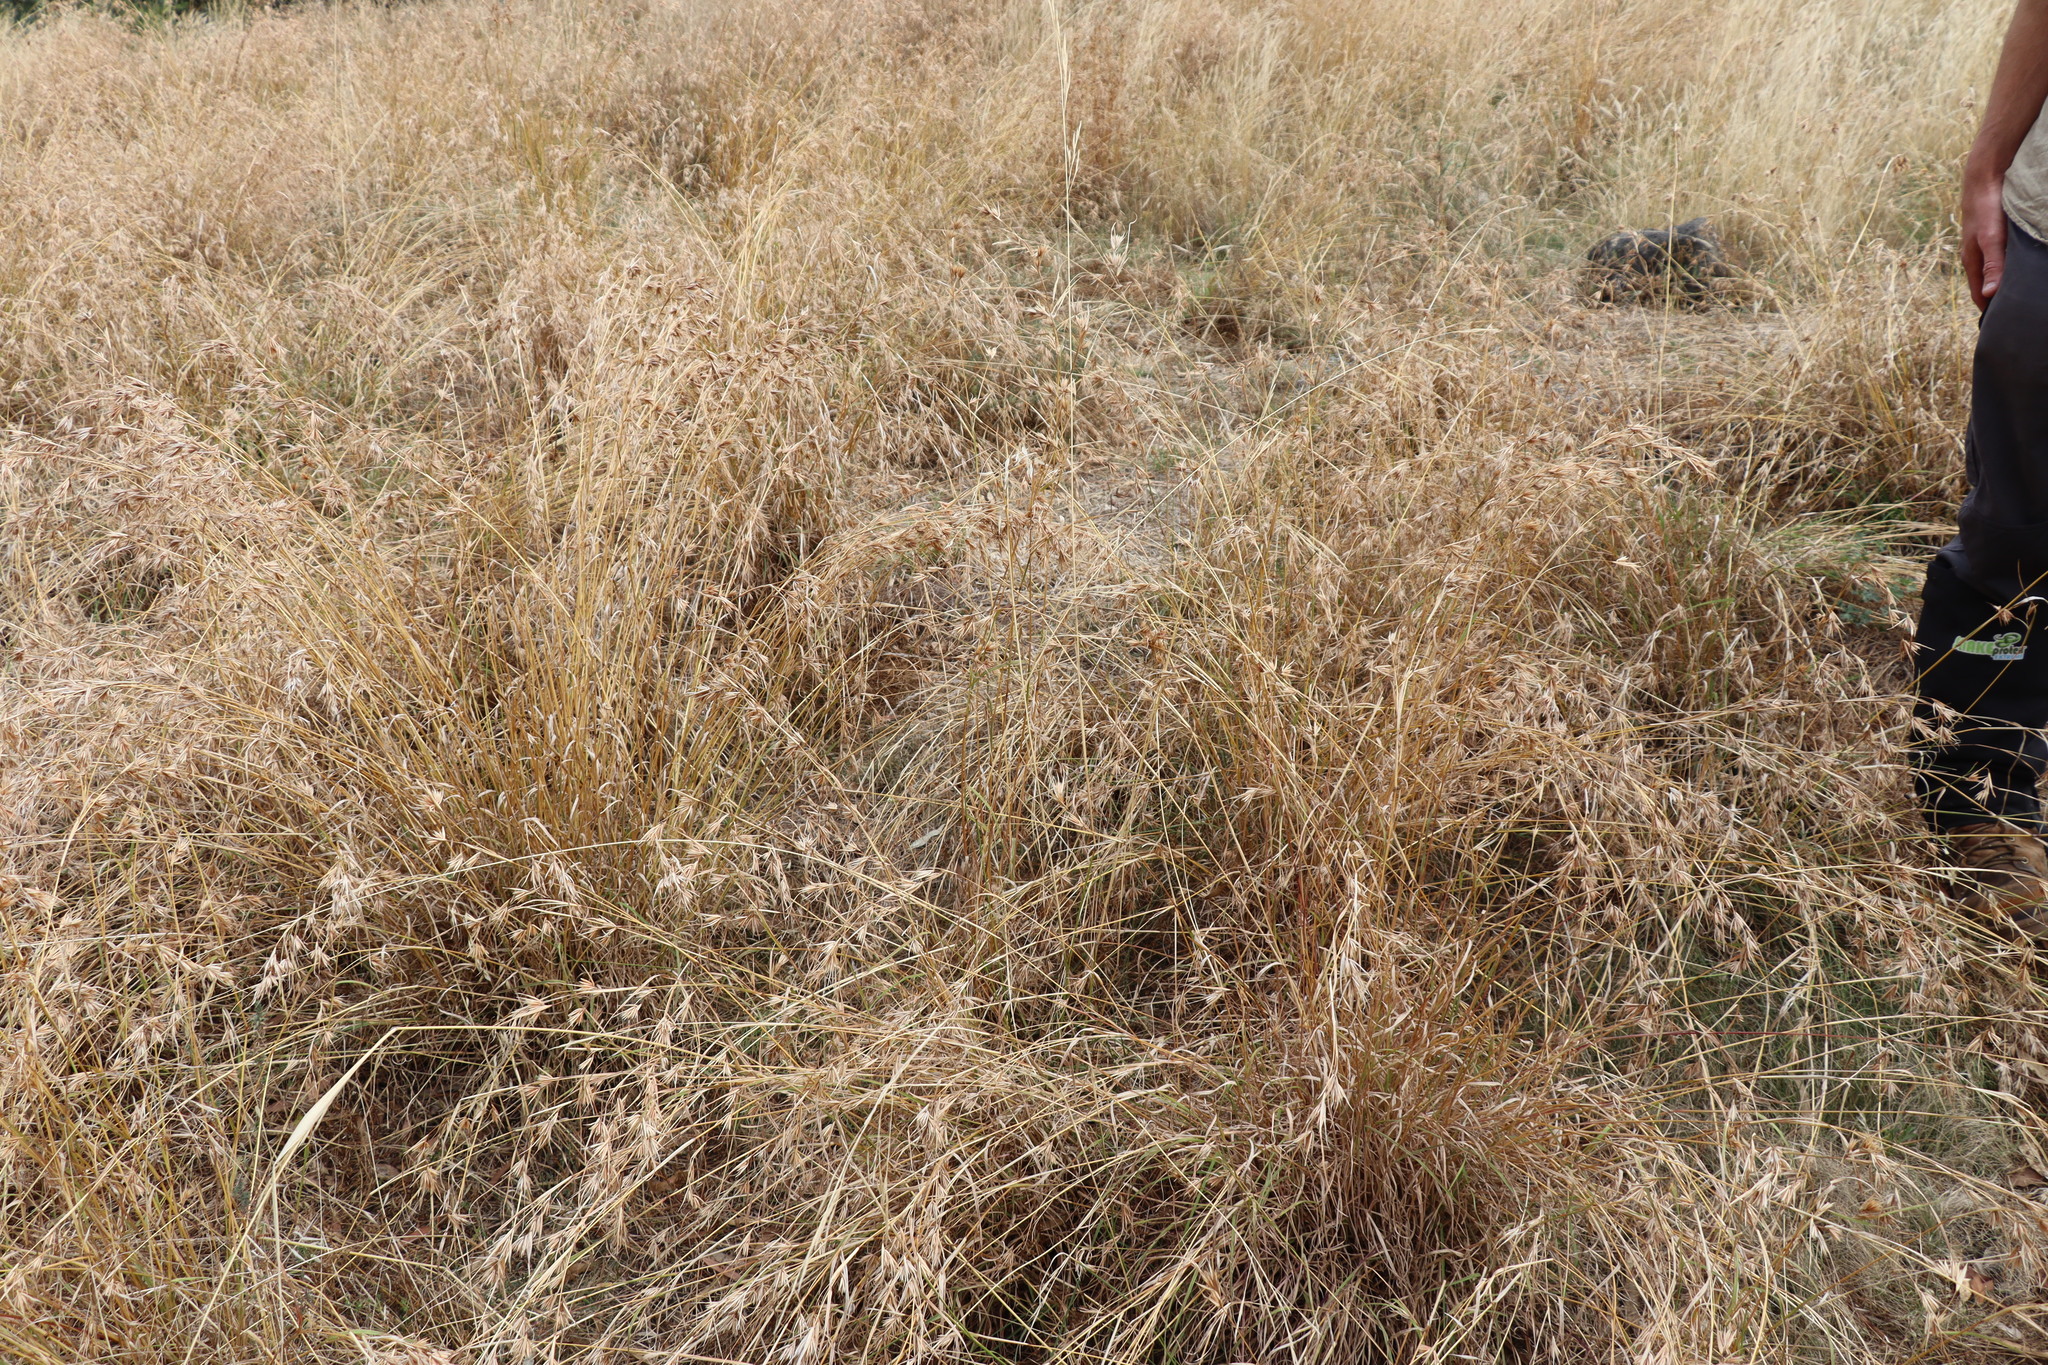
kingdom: Plantae
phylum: Tracheophyta
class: Liliopsida
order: Poales
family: Poaceae
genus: Themeda
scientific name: Themeda triandra
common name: Kangaroo grass
